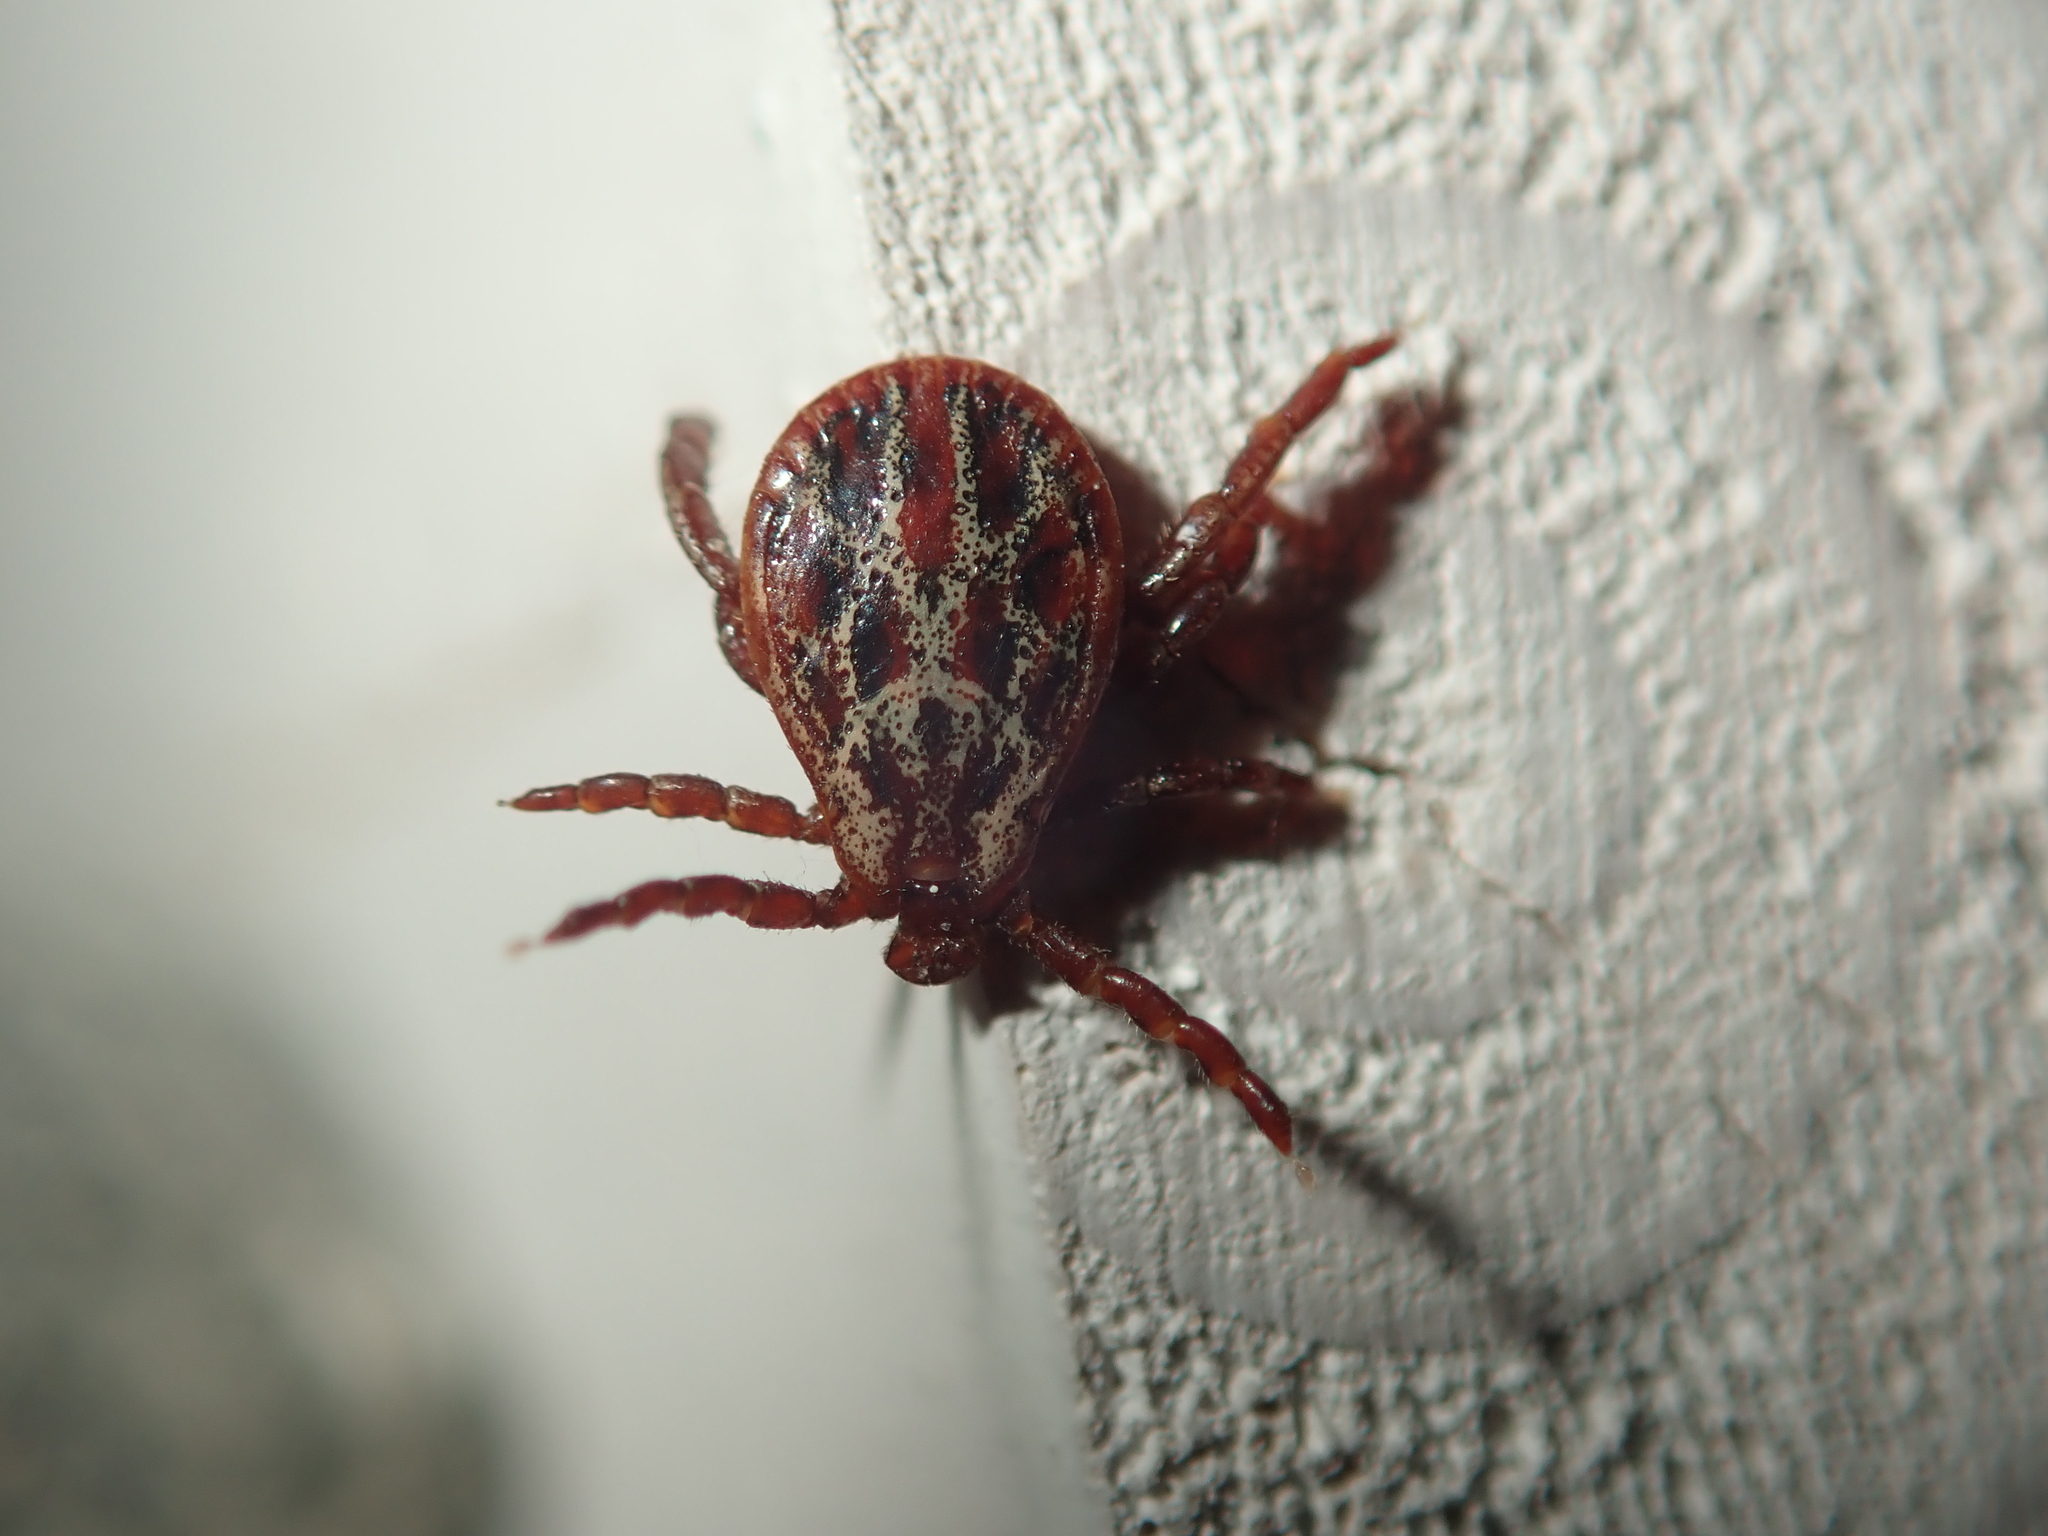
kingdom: Animalia
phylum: Arthropoda
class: Arachnida
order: Ixodida
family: Ixodidae
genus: Dermacentor
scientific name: Dermacentor reticulatus
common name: Ornate cow tick
